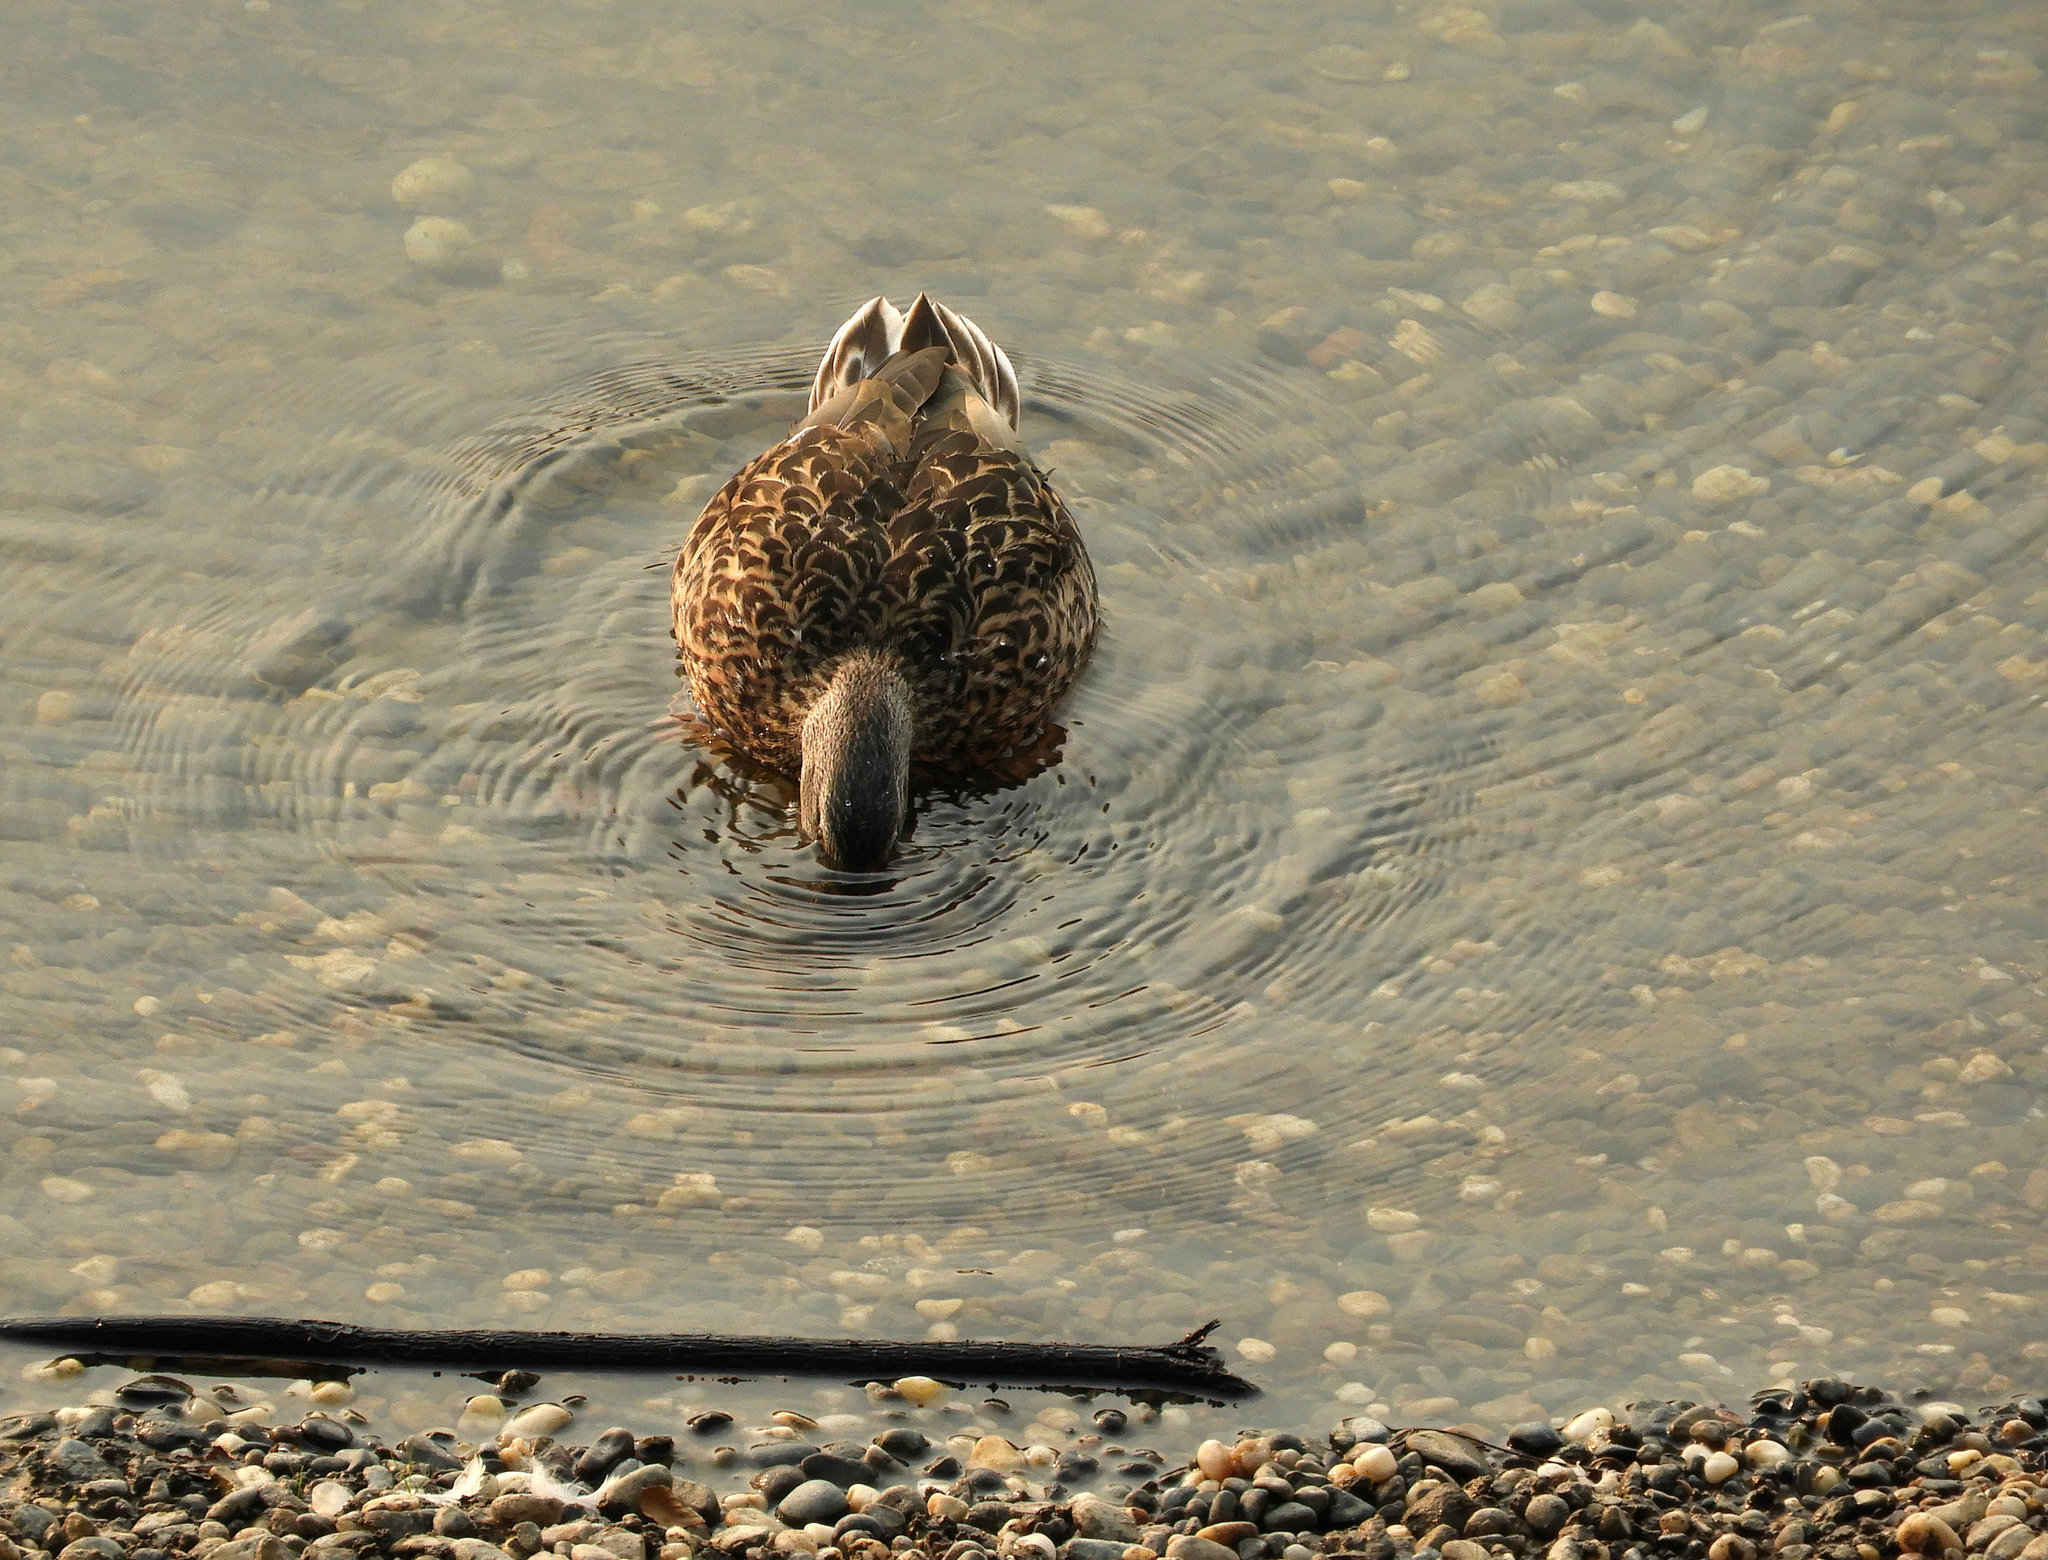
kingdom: Animalia
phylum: Chordata
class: Aves
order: Anseriformes
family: Anatidae
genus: Anas
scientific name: Anas platyrhynchos
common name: Mallard
